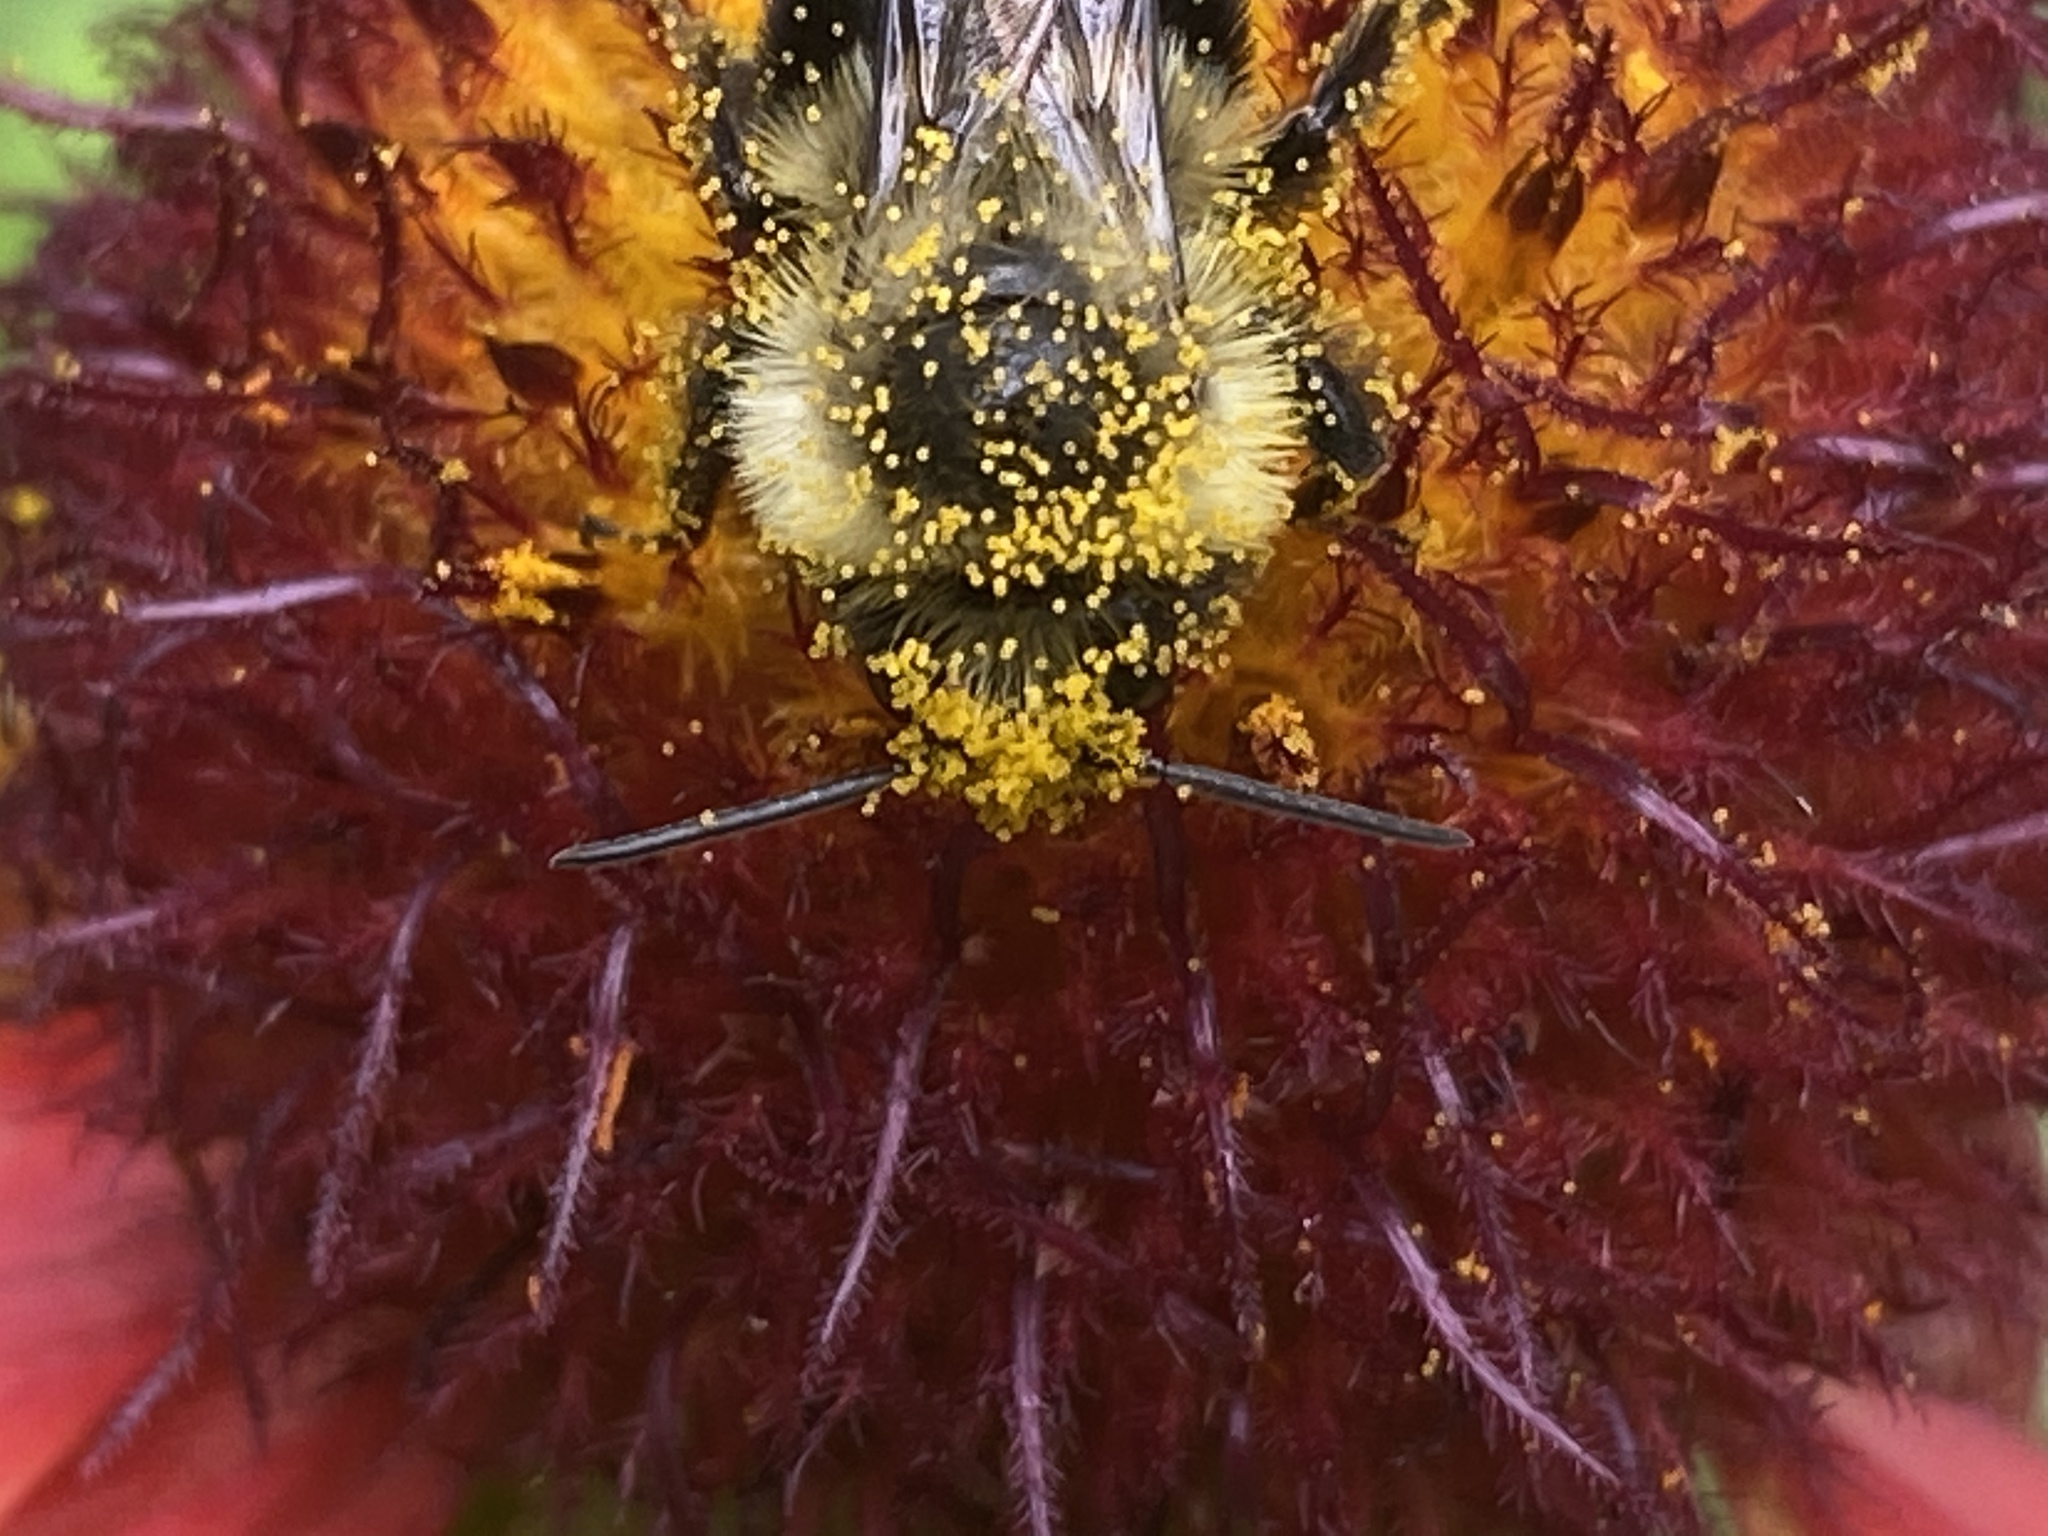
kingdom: Animalia
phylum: Arthropoda
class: Insecta
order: Hymenoptera
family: Apidae
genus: Bombus
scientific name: Bombus impatiens
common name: Common eastern bumble bee
